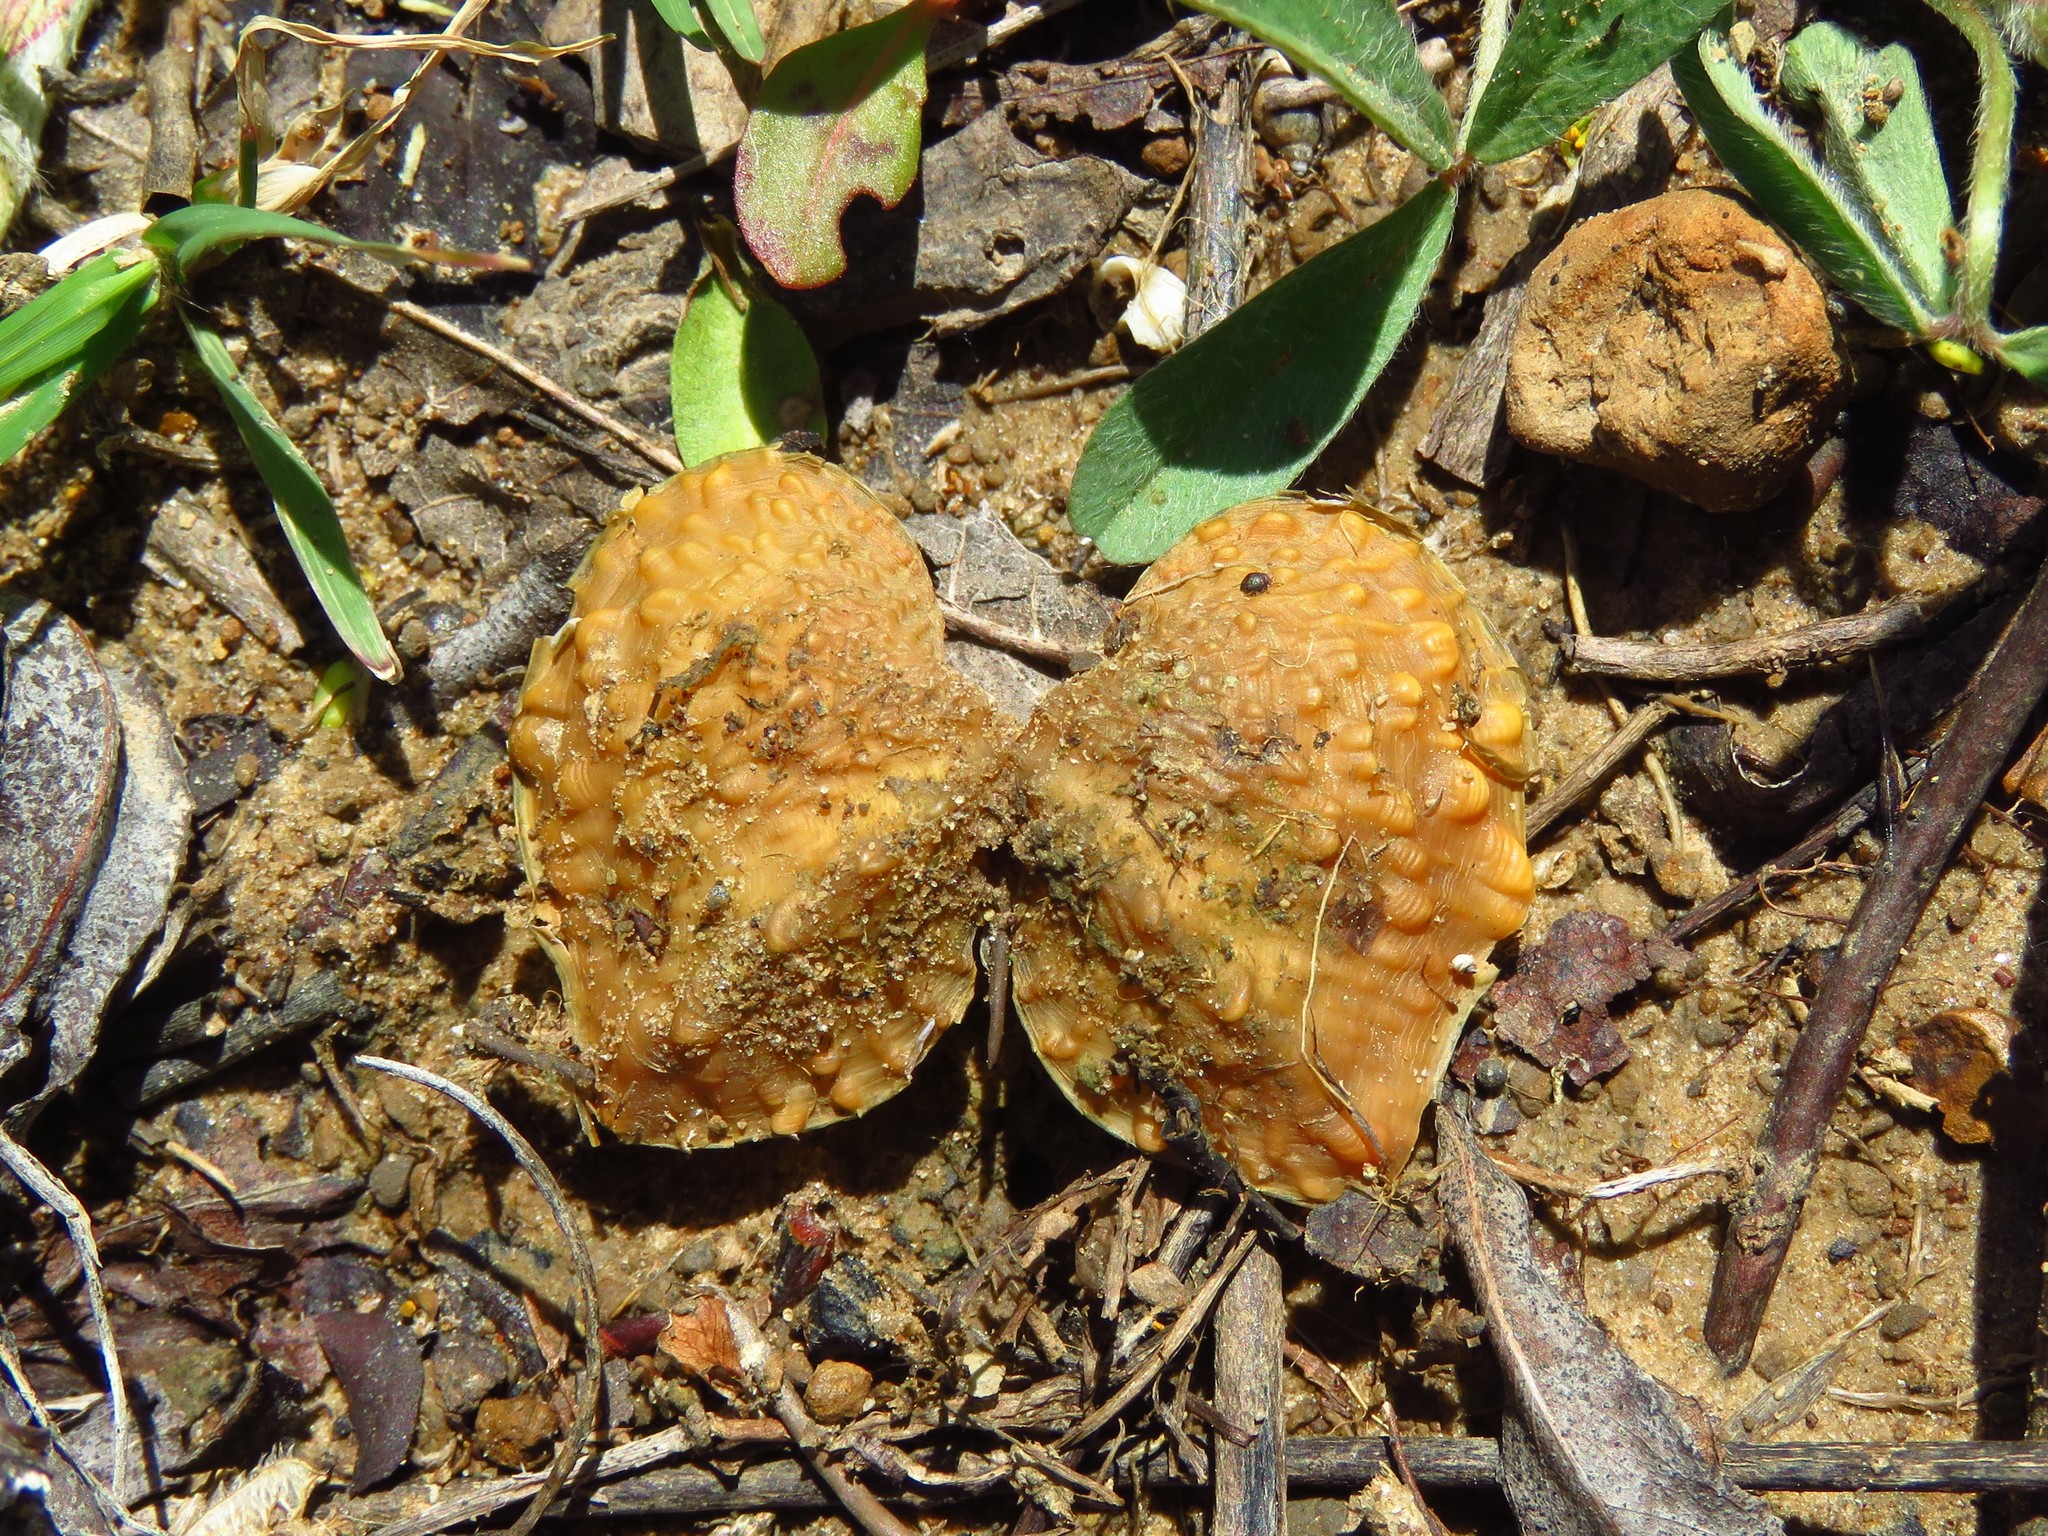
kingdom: Animalia
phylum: Mollusca
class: Bivalvia
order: Unionida
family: Unionidae
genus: Quadrula
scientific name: Quadrula quadrula
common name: Mapleleaf
